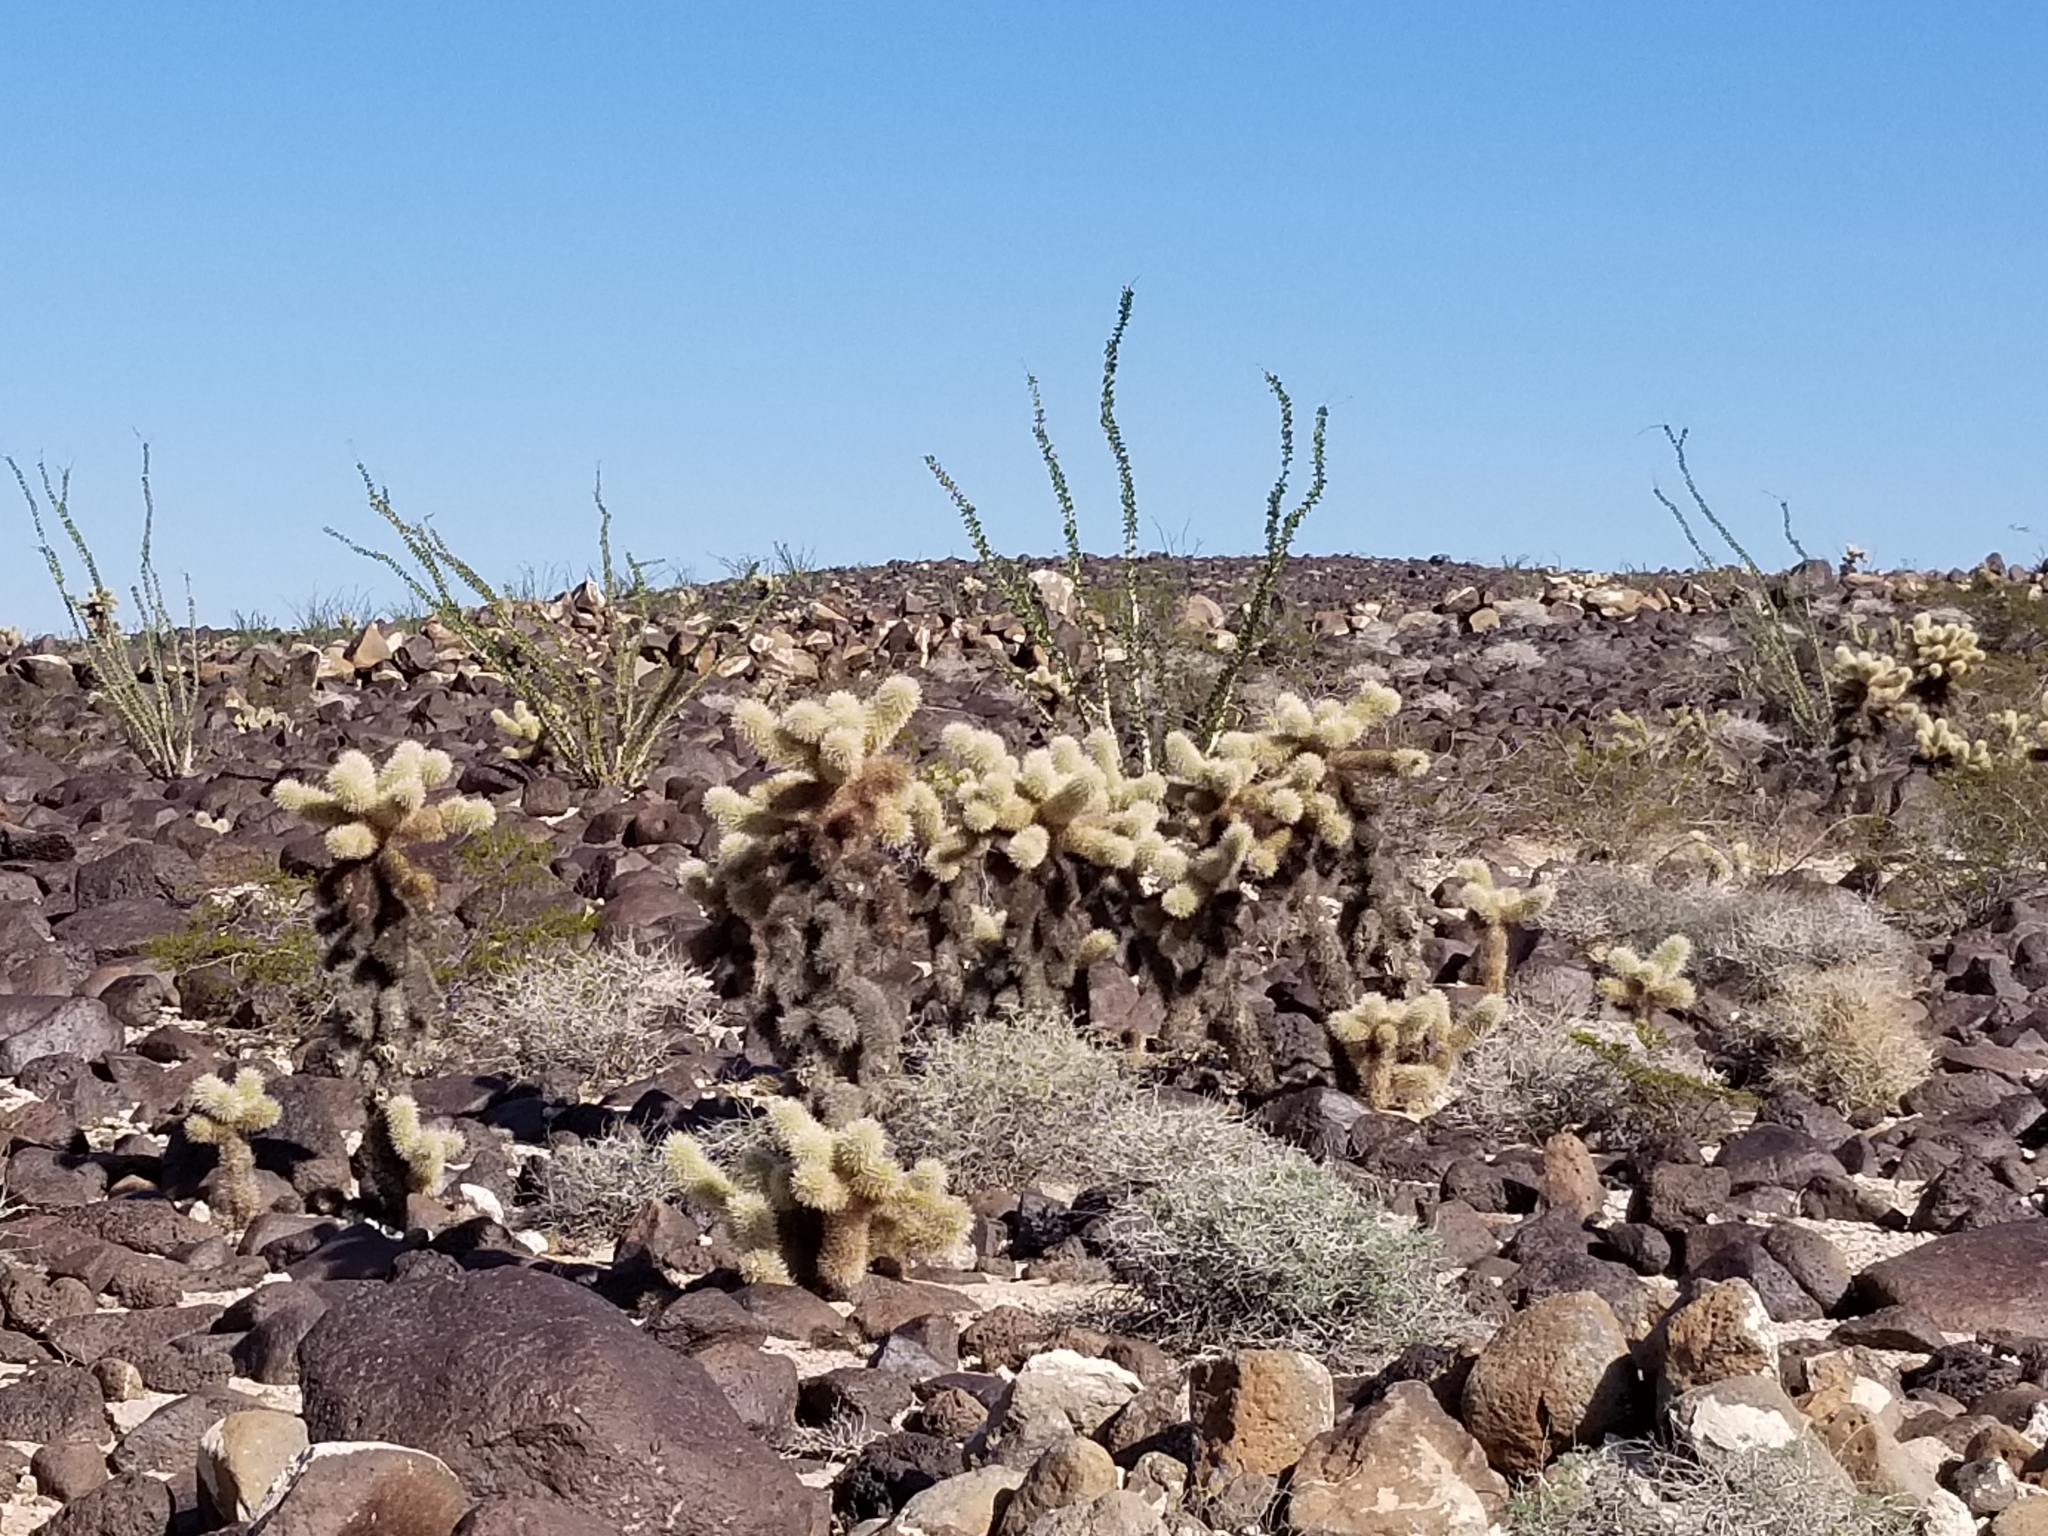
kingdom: Plantae
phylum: Tracheophyta
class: Magnoliopsida
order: Caryophyllales
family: Cactaceae
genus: Cylindropuntia
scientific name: Cylindropuntia fosbergii
